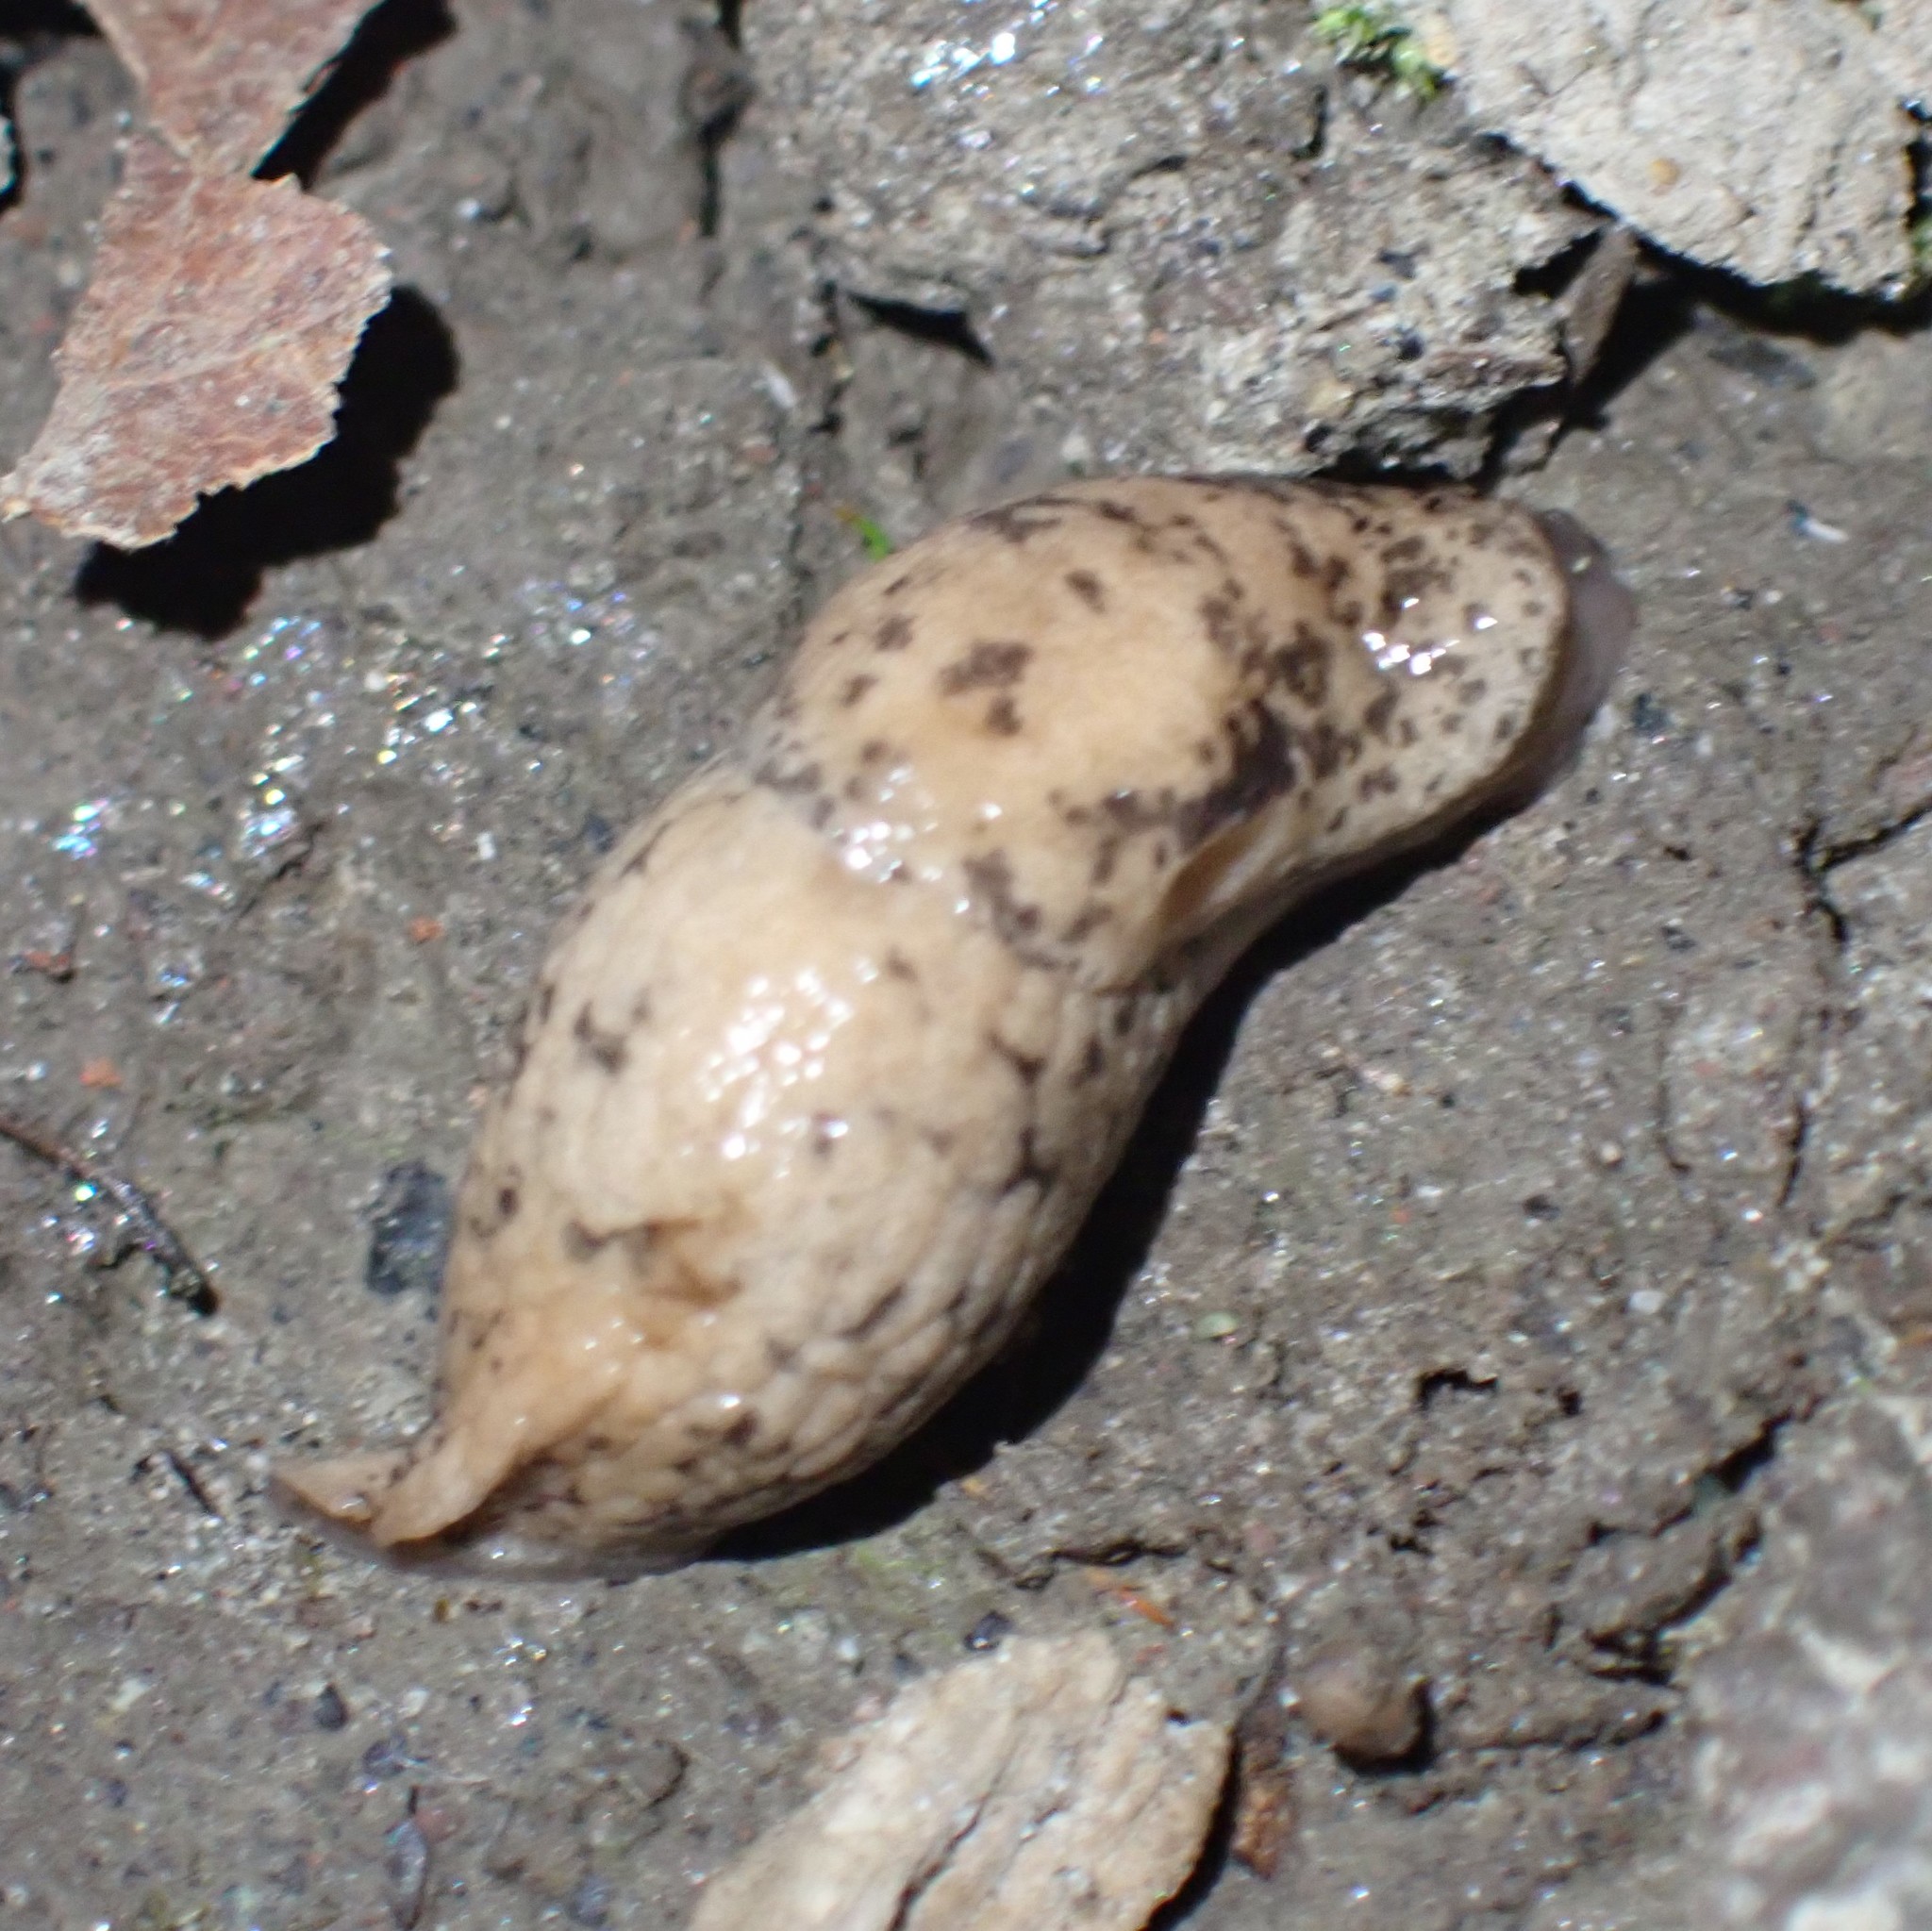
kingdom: Animalia
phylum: Mollusca
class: Gastropoda
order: Stylommatophora
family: Agriolimacidae
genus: Deroceras
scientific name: Deroceras reticulatum
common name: Gray field slug
